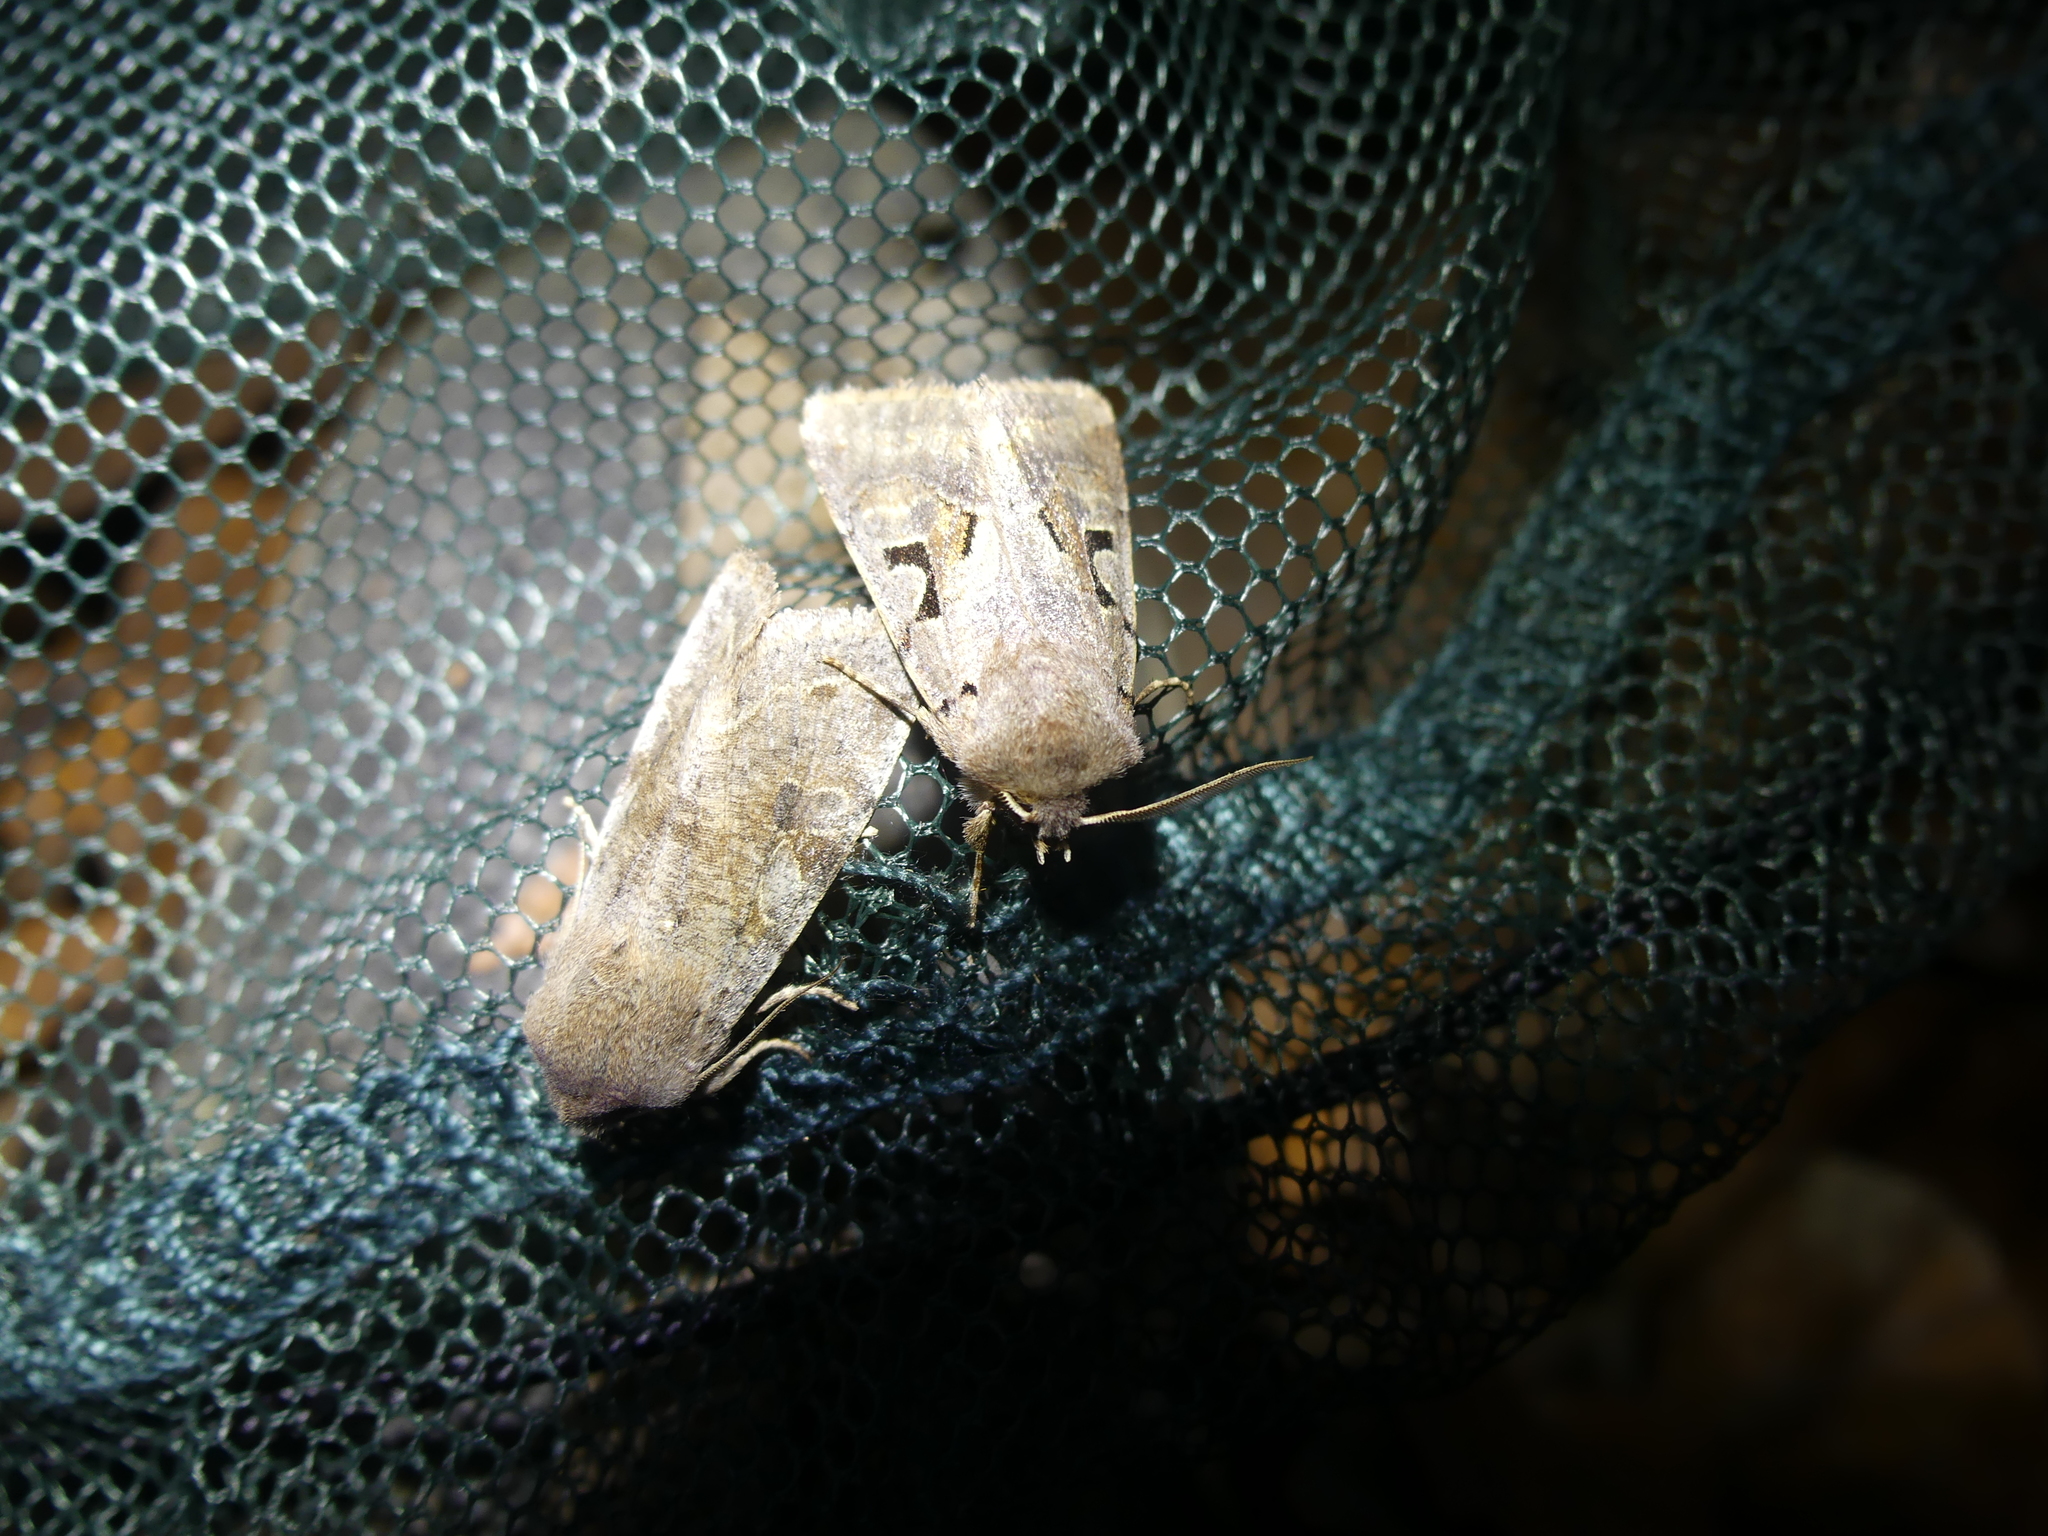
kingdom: Animalia
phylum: Arthropoda
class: Insecta
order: Lepidoptera
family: Noctuidae
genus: Orthosia
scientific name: Orthosia incerta
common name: Clouded drab
